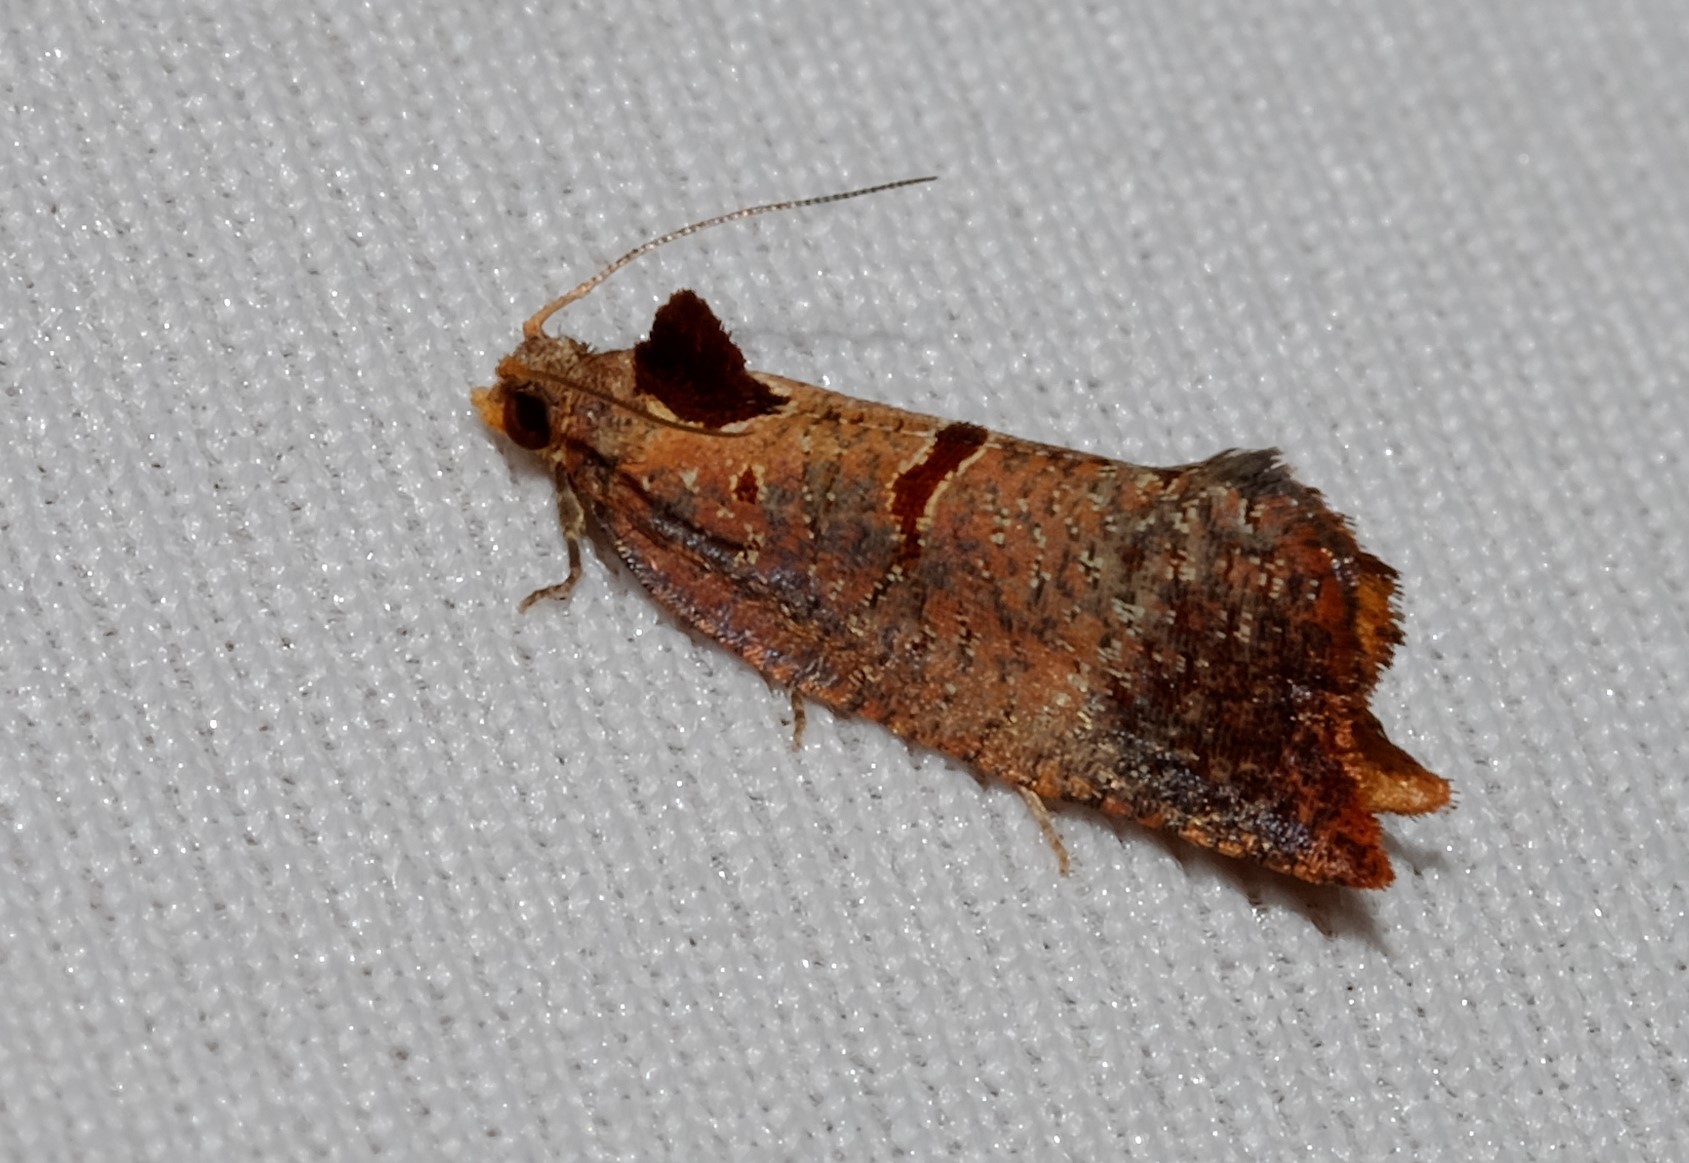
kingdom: Animalia
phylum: Arthropoda
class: Insecta
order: Lepidoptera
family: Tortricidae
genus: Glyphidoptera
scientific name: Glyphidoptera insignana
